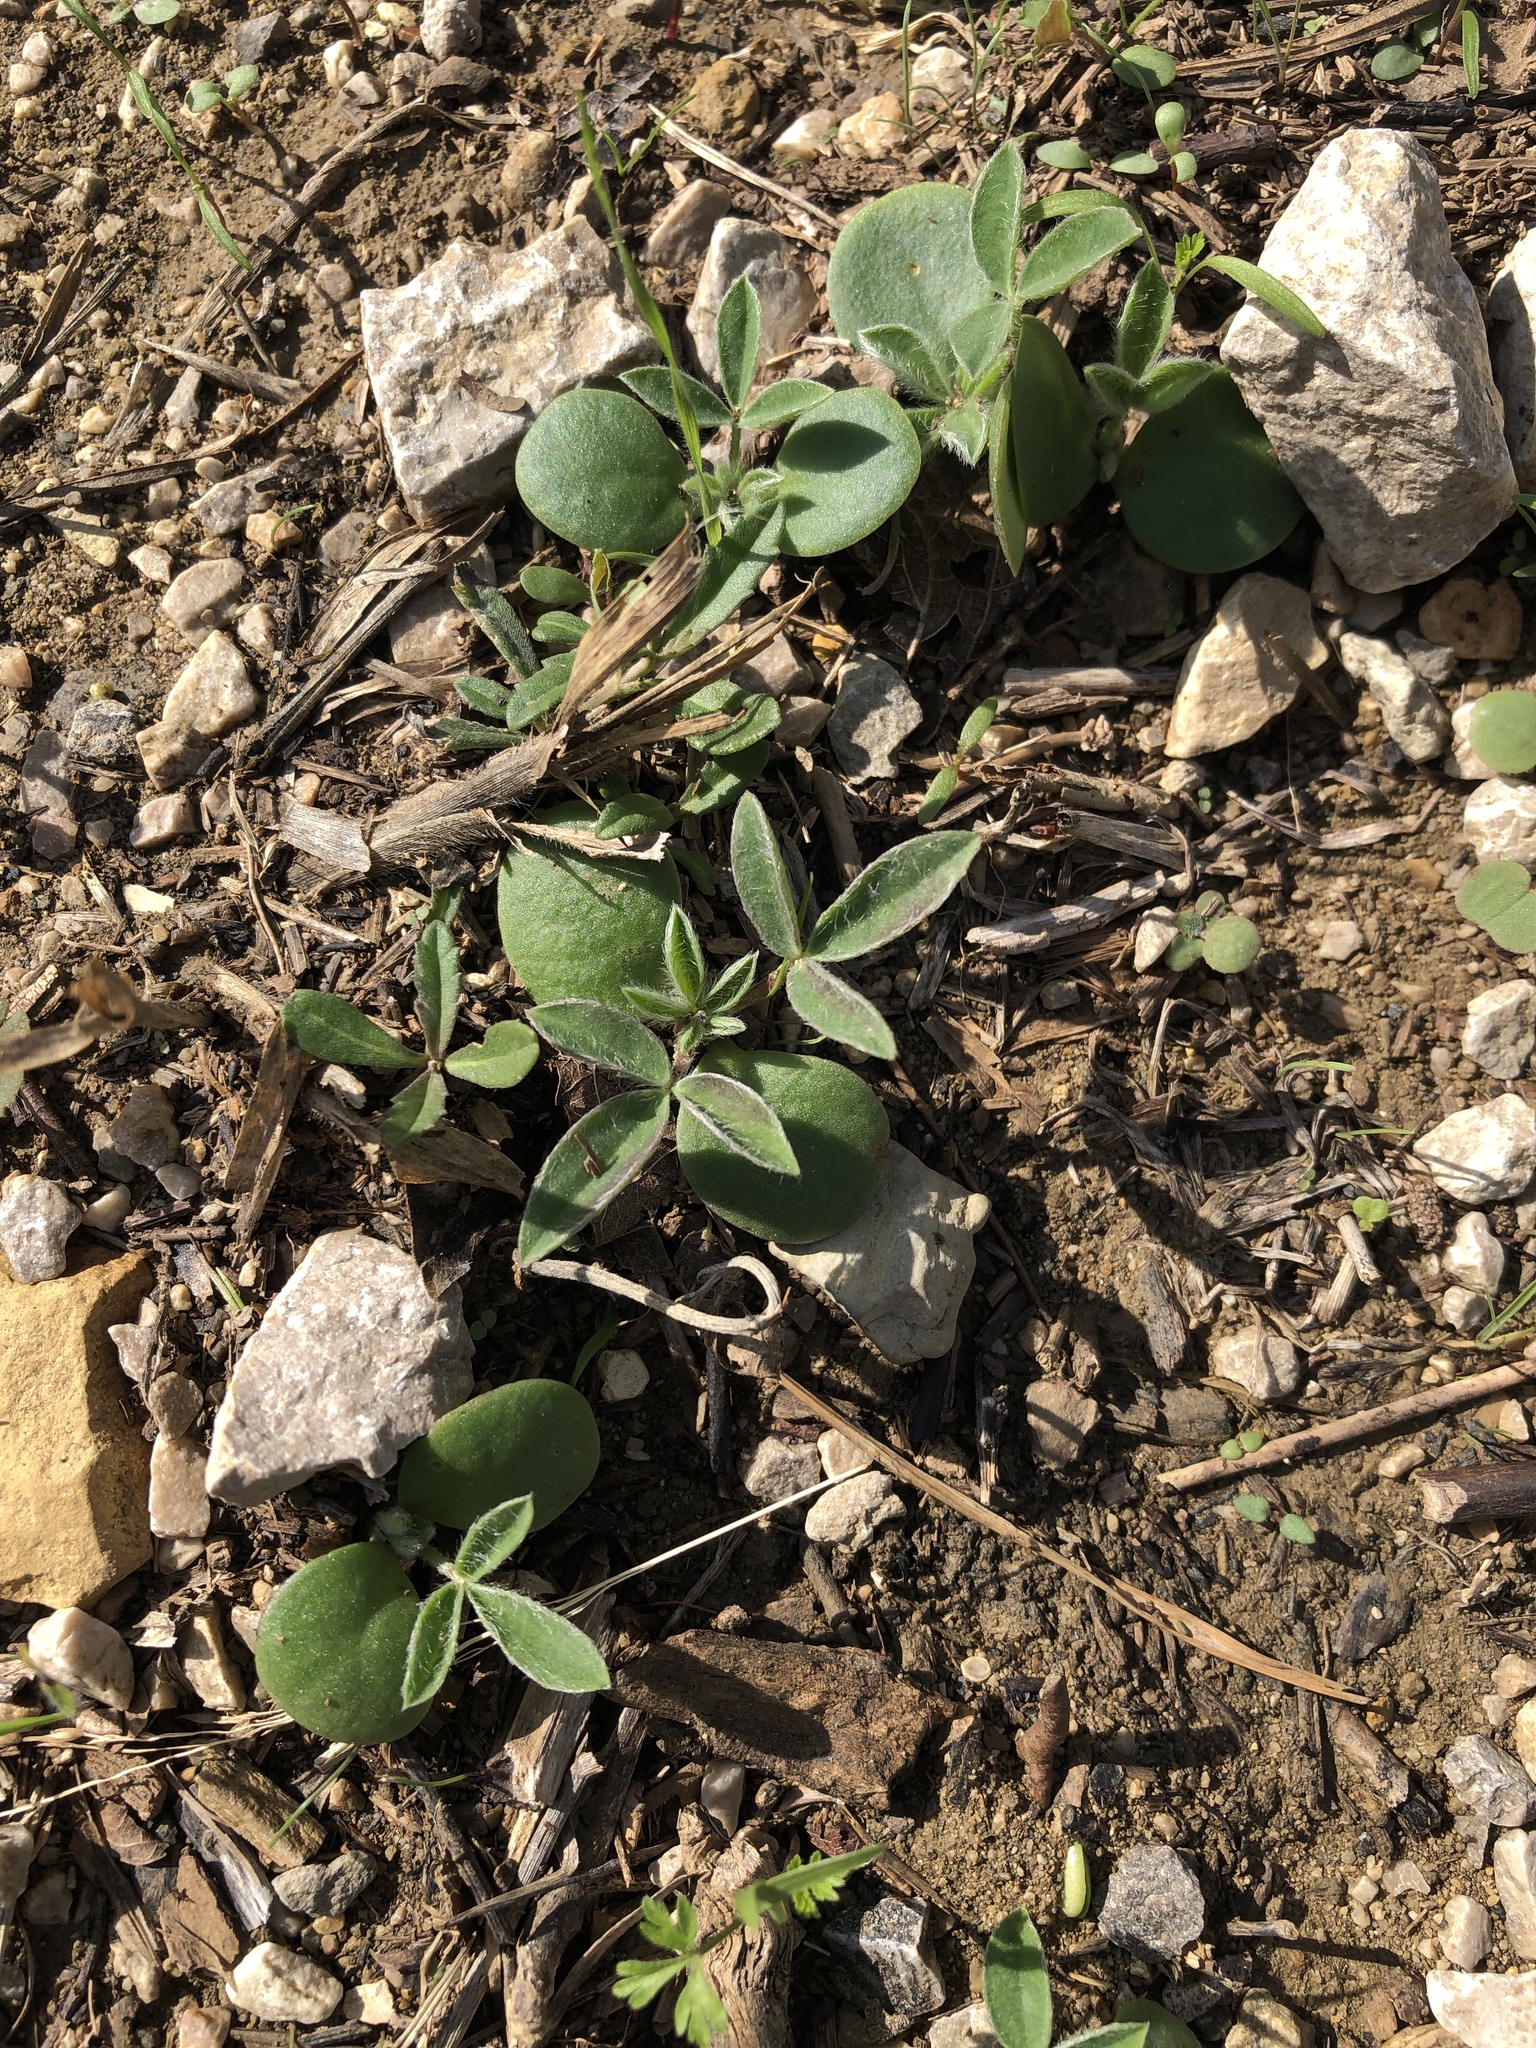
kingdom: Plantae
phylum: Tracheophyta
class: Magnoliopsida
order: Fabales
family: Fabaceae
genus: Lupinus
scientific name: Lupinus texensis
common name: Texas bluebonnet
